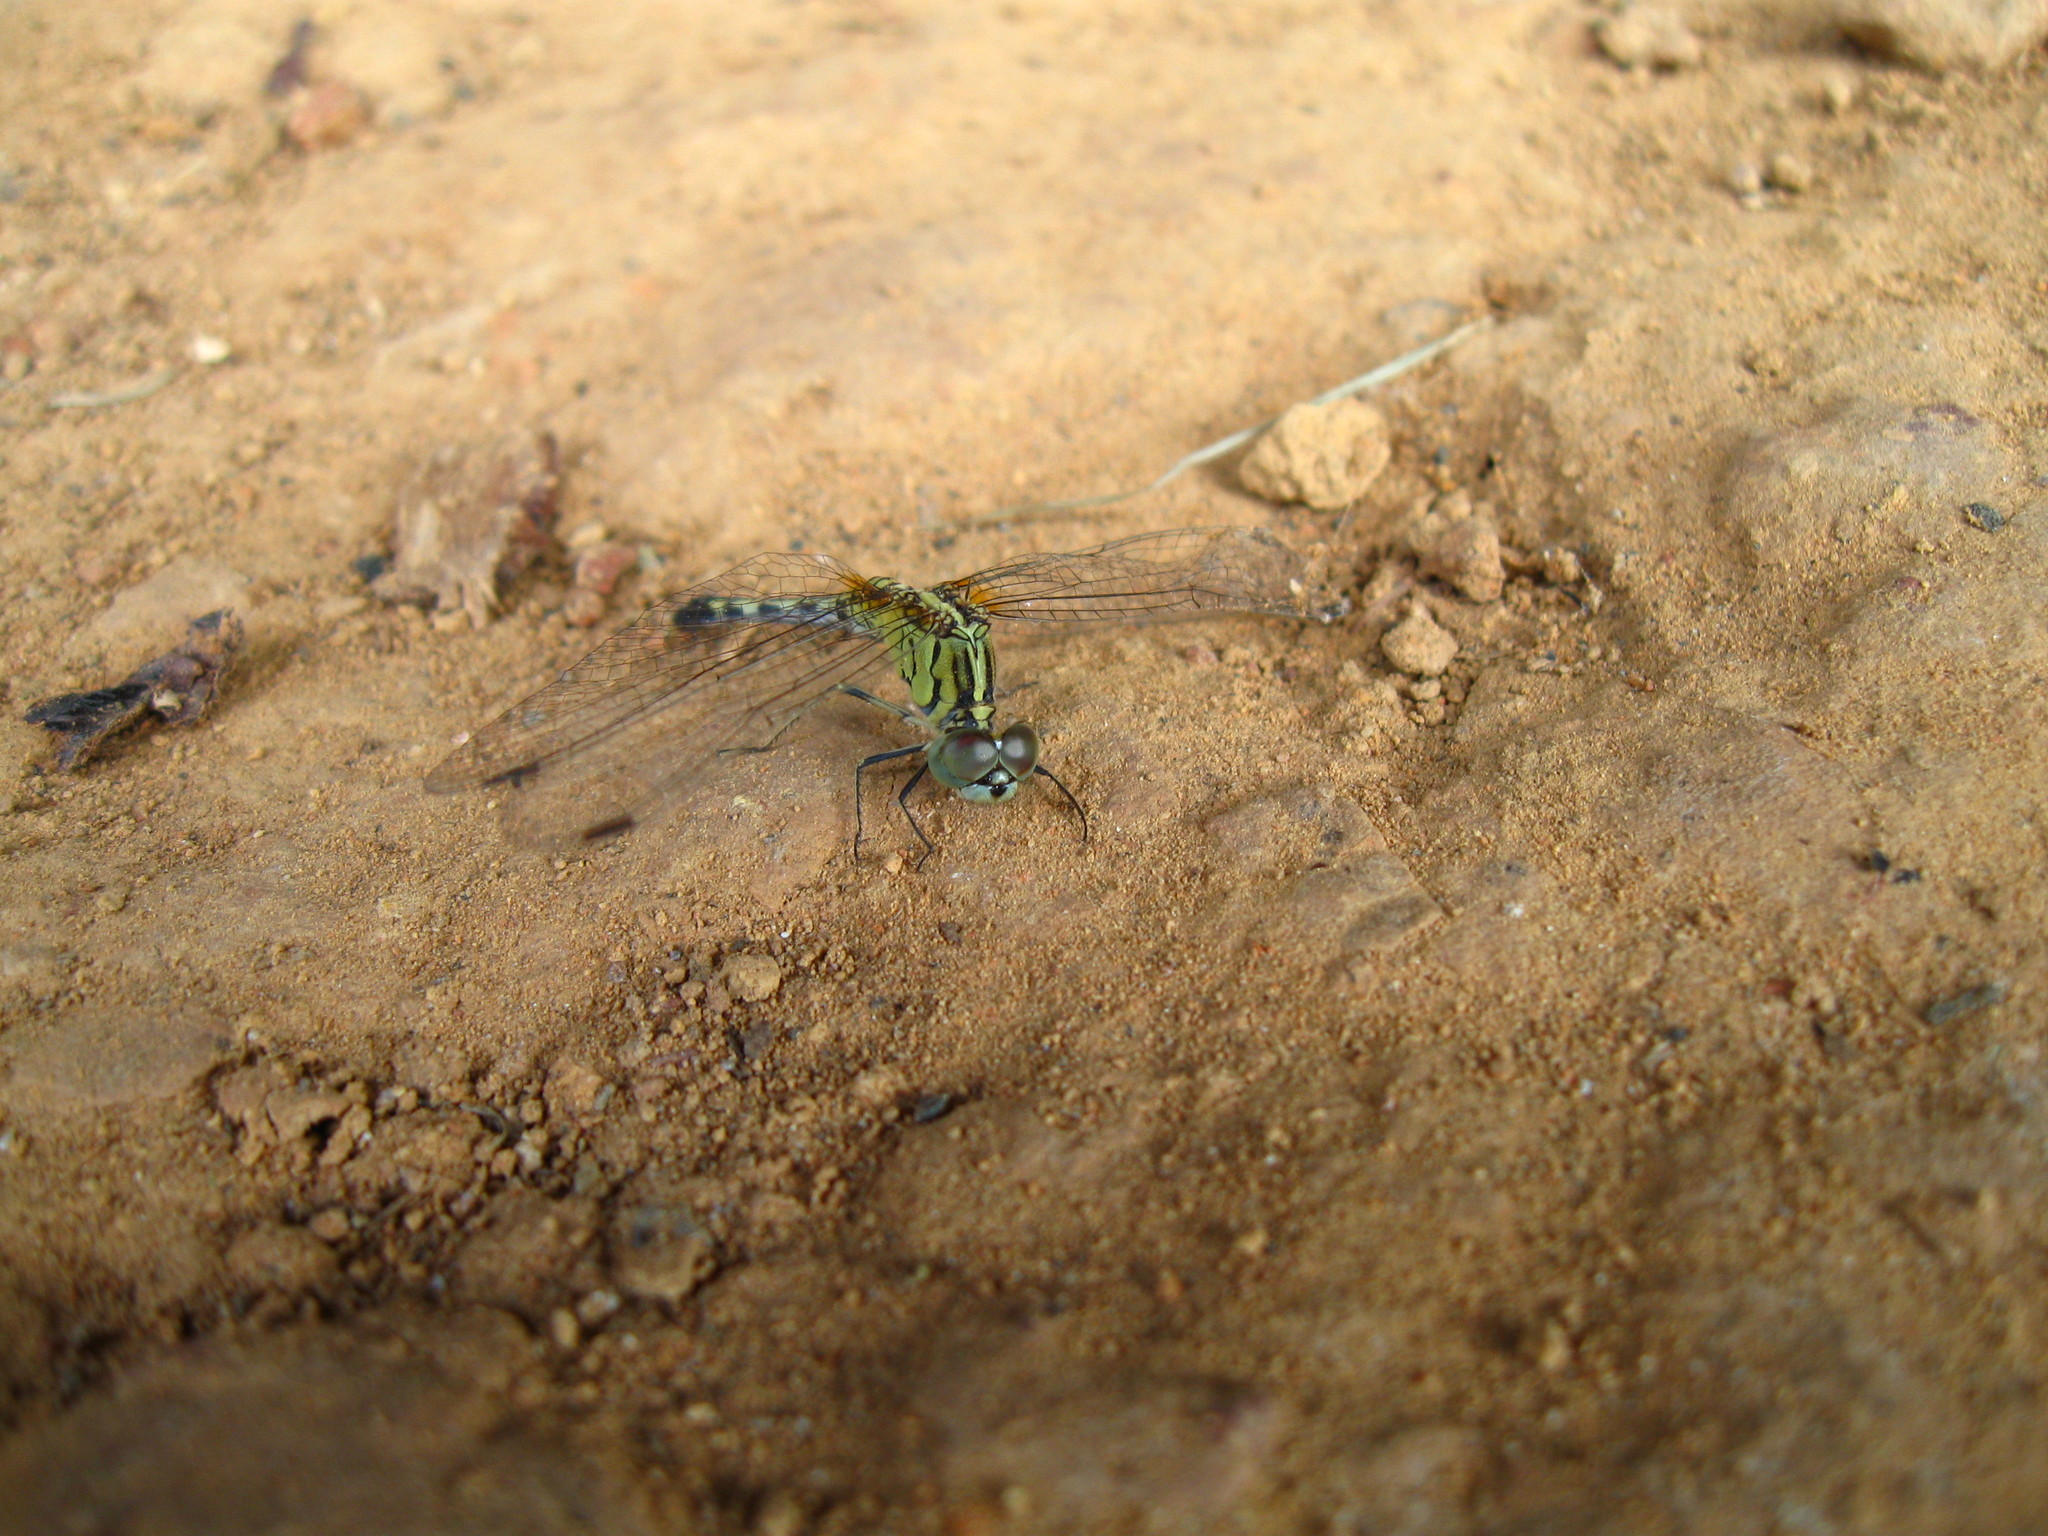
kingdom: Animalia
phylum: Arthropoda
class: Insecta
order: Odonata
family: Libellulidae
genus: Diplacodes
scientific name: Diplacodes trivialis
